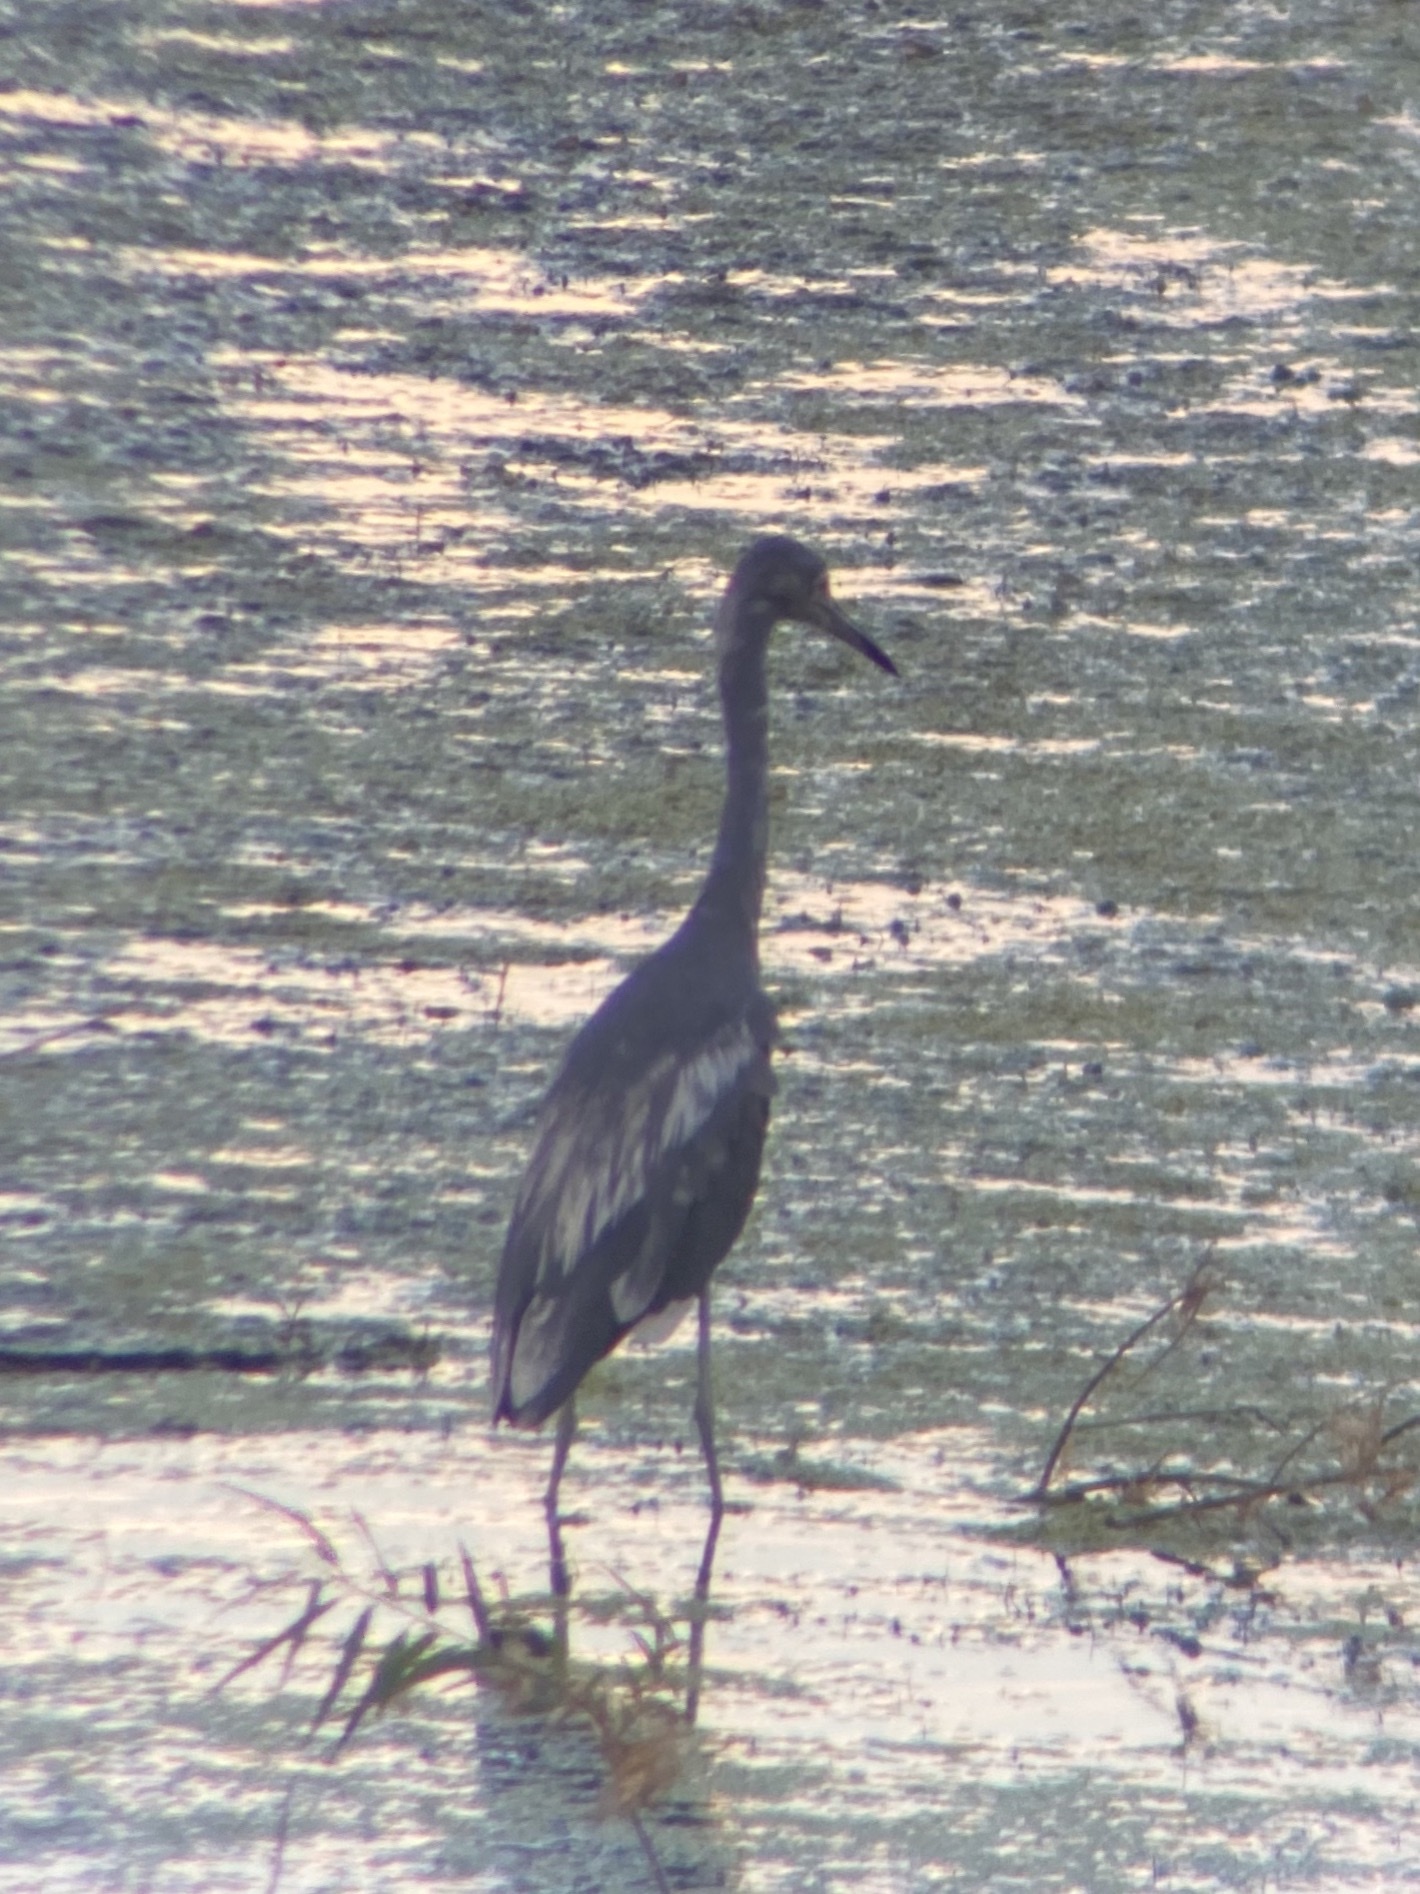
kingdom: Animalia
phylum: Chordata
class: Aves
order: Pelecaniformes
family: Ardeidae
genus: Egretta
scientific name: Egretta caerulea
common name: Little blue heron
